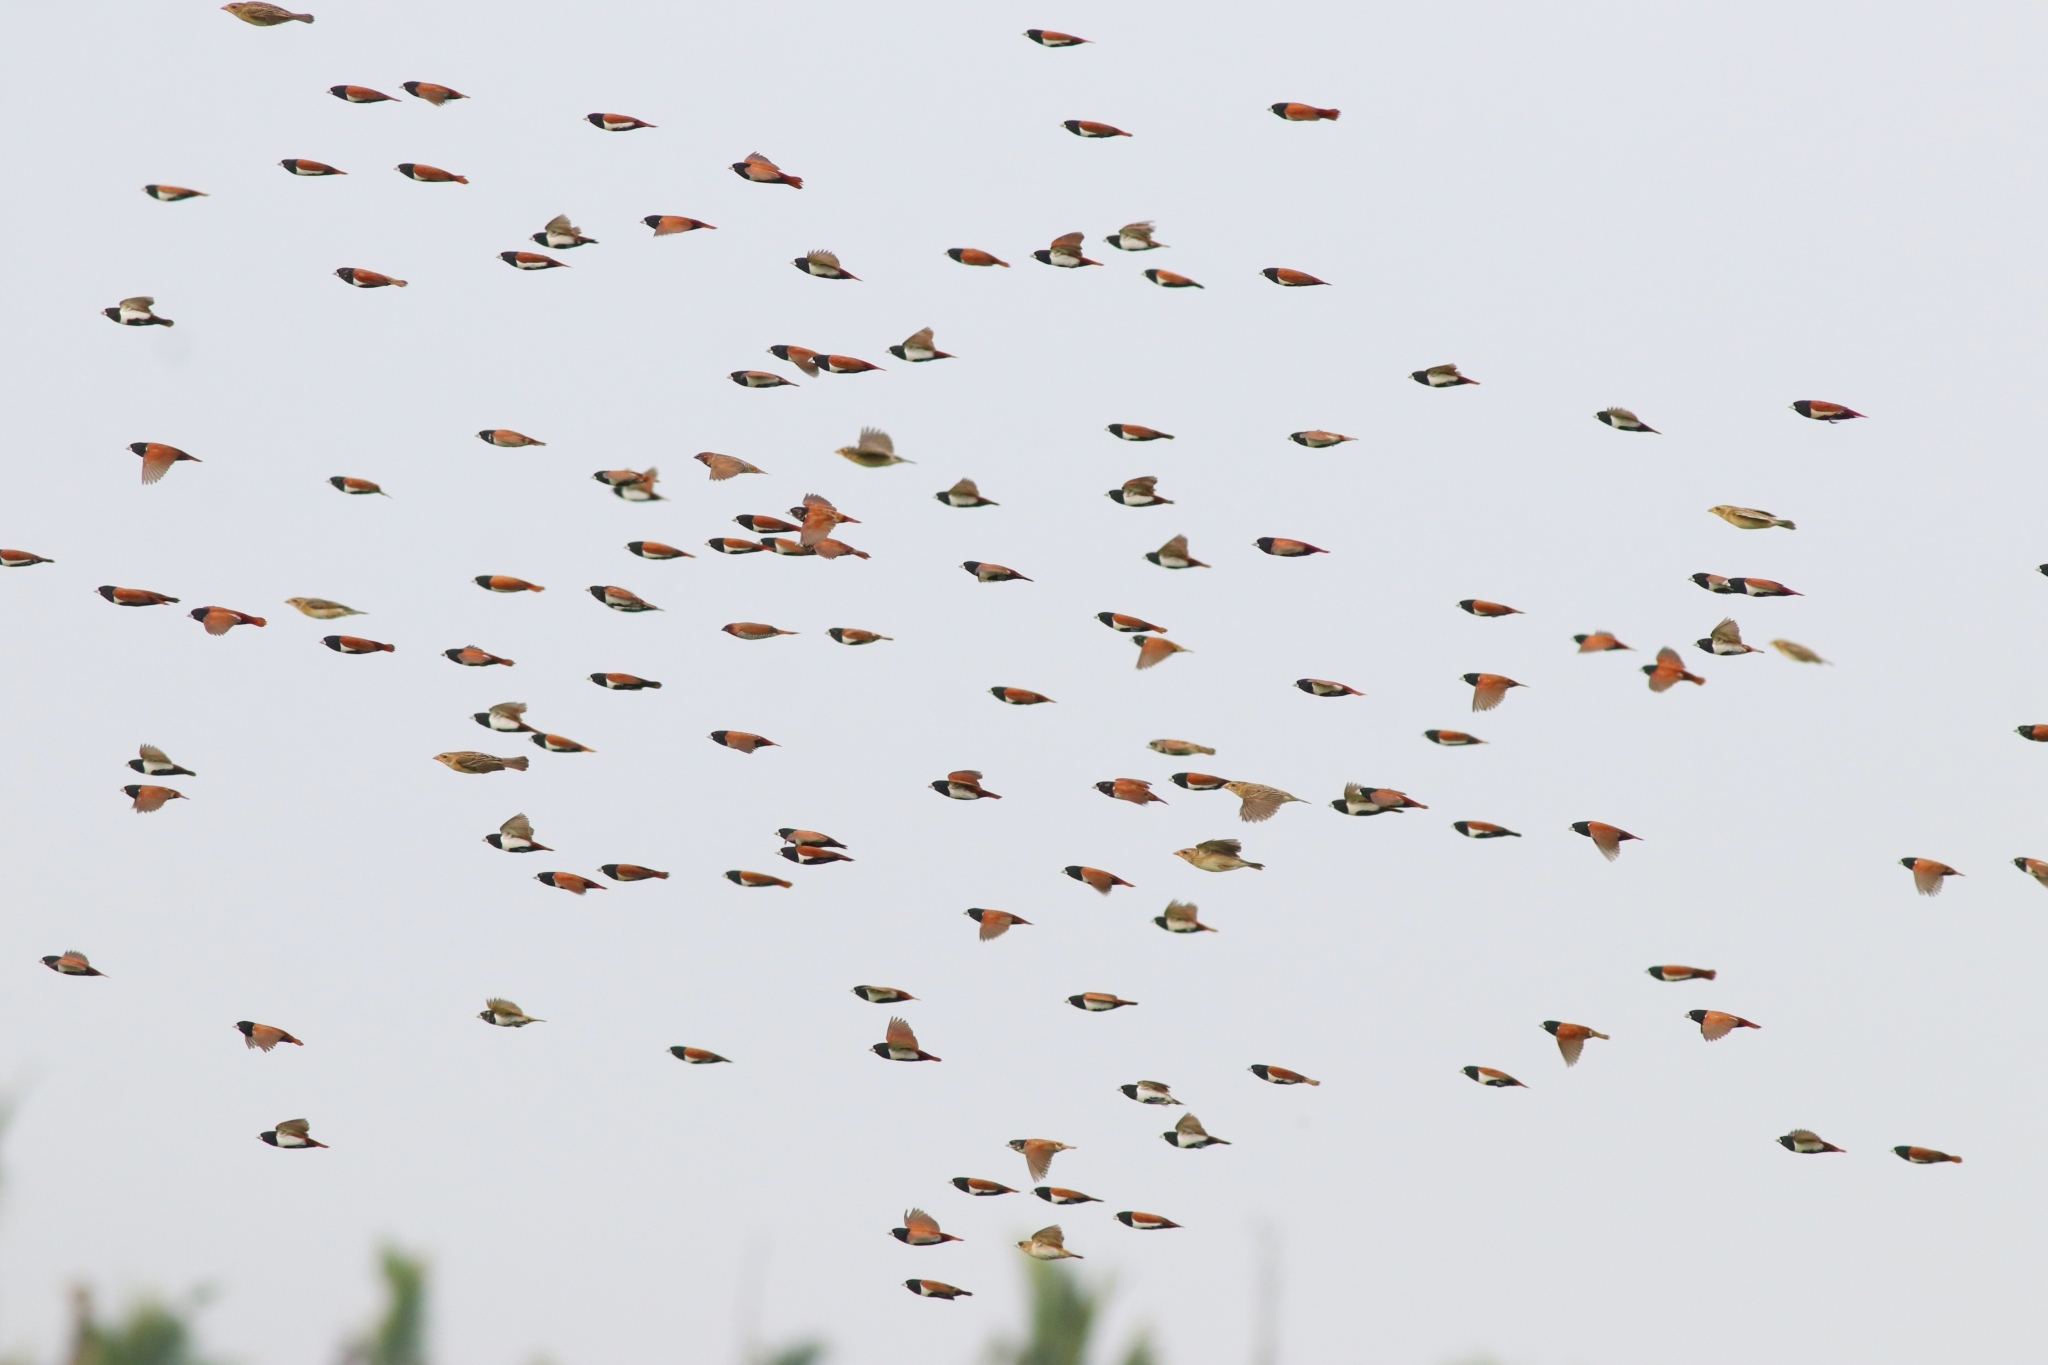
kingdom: Animalia
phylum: Chordata
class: Aves
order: Passeriformes
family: Estrildidae
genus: Lonchura
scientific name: Lonchura malacca
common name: Tricolored munia
